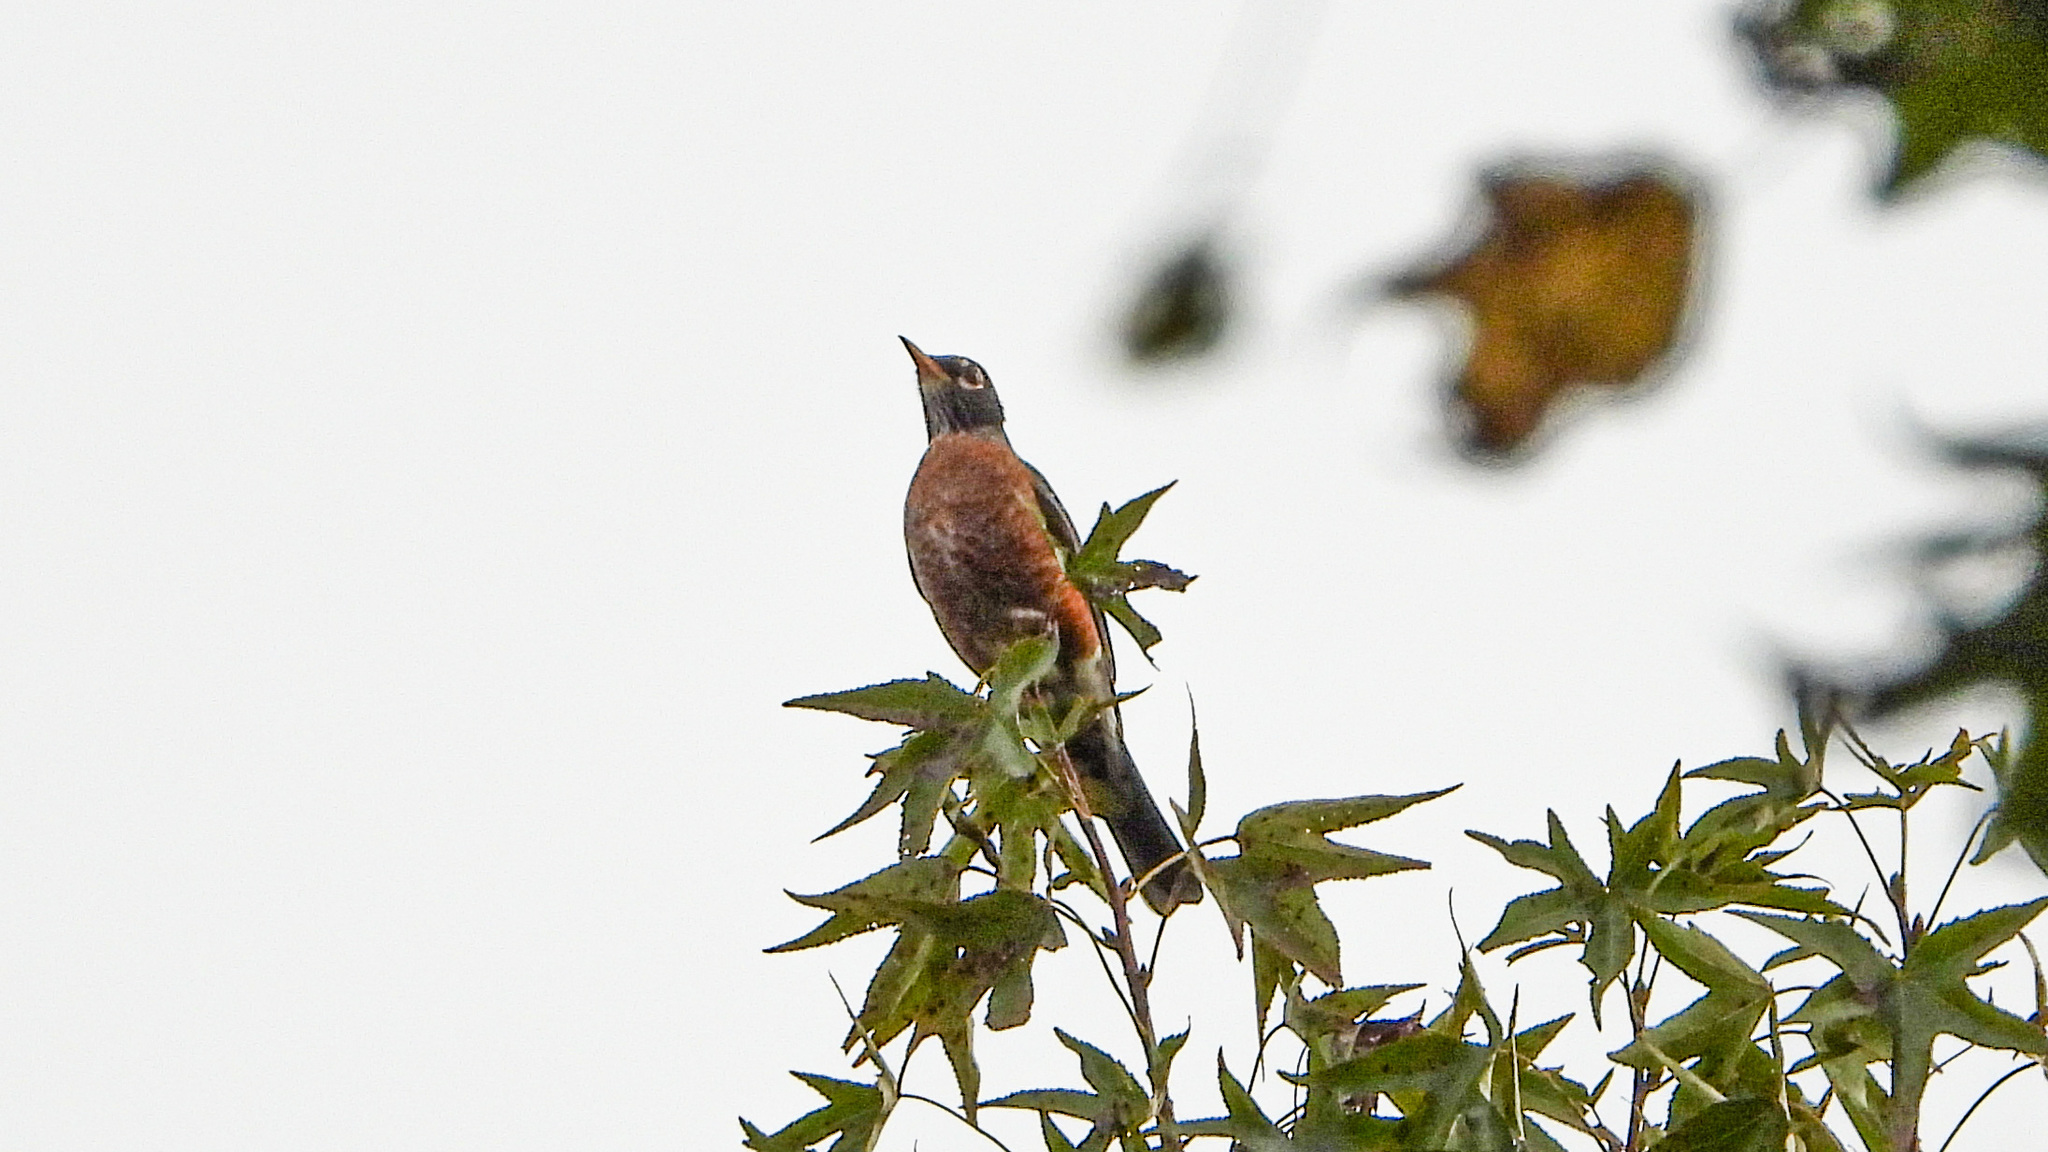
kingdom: Animalia
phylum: Chordata
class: Aves
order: Passeriformes
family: Turdidae
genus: Turdus
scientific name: Turdus migratorius
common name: American robin
